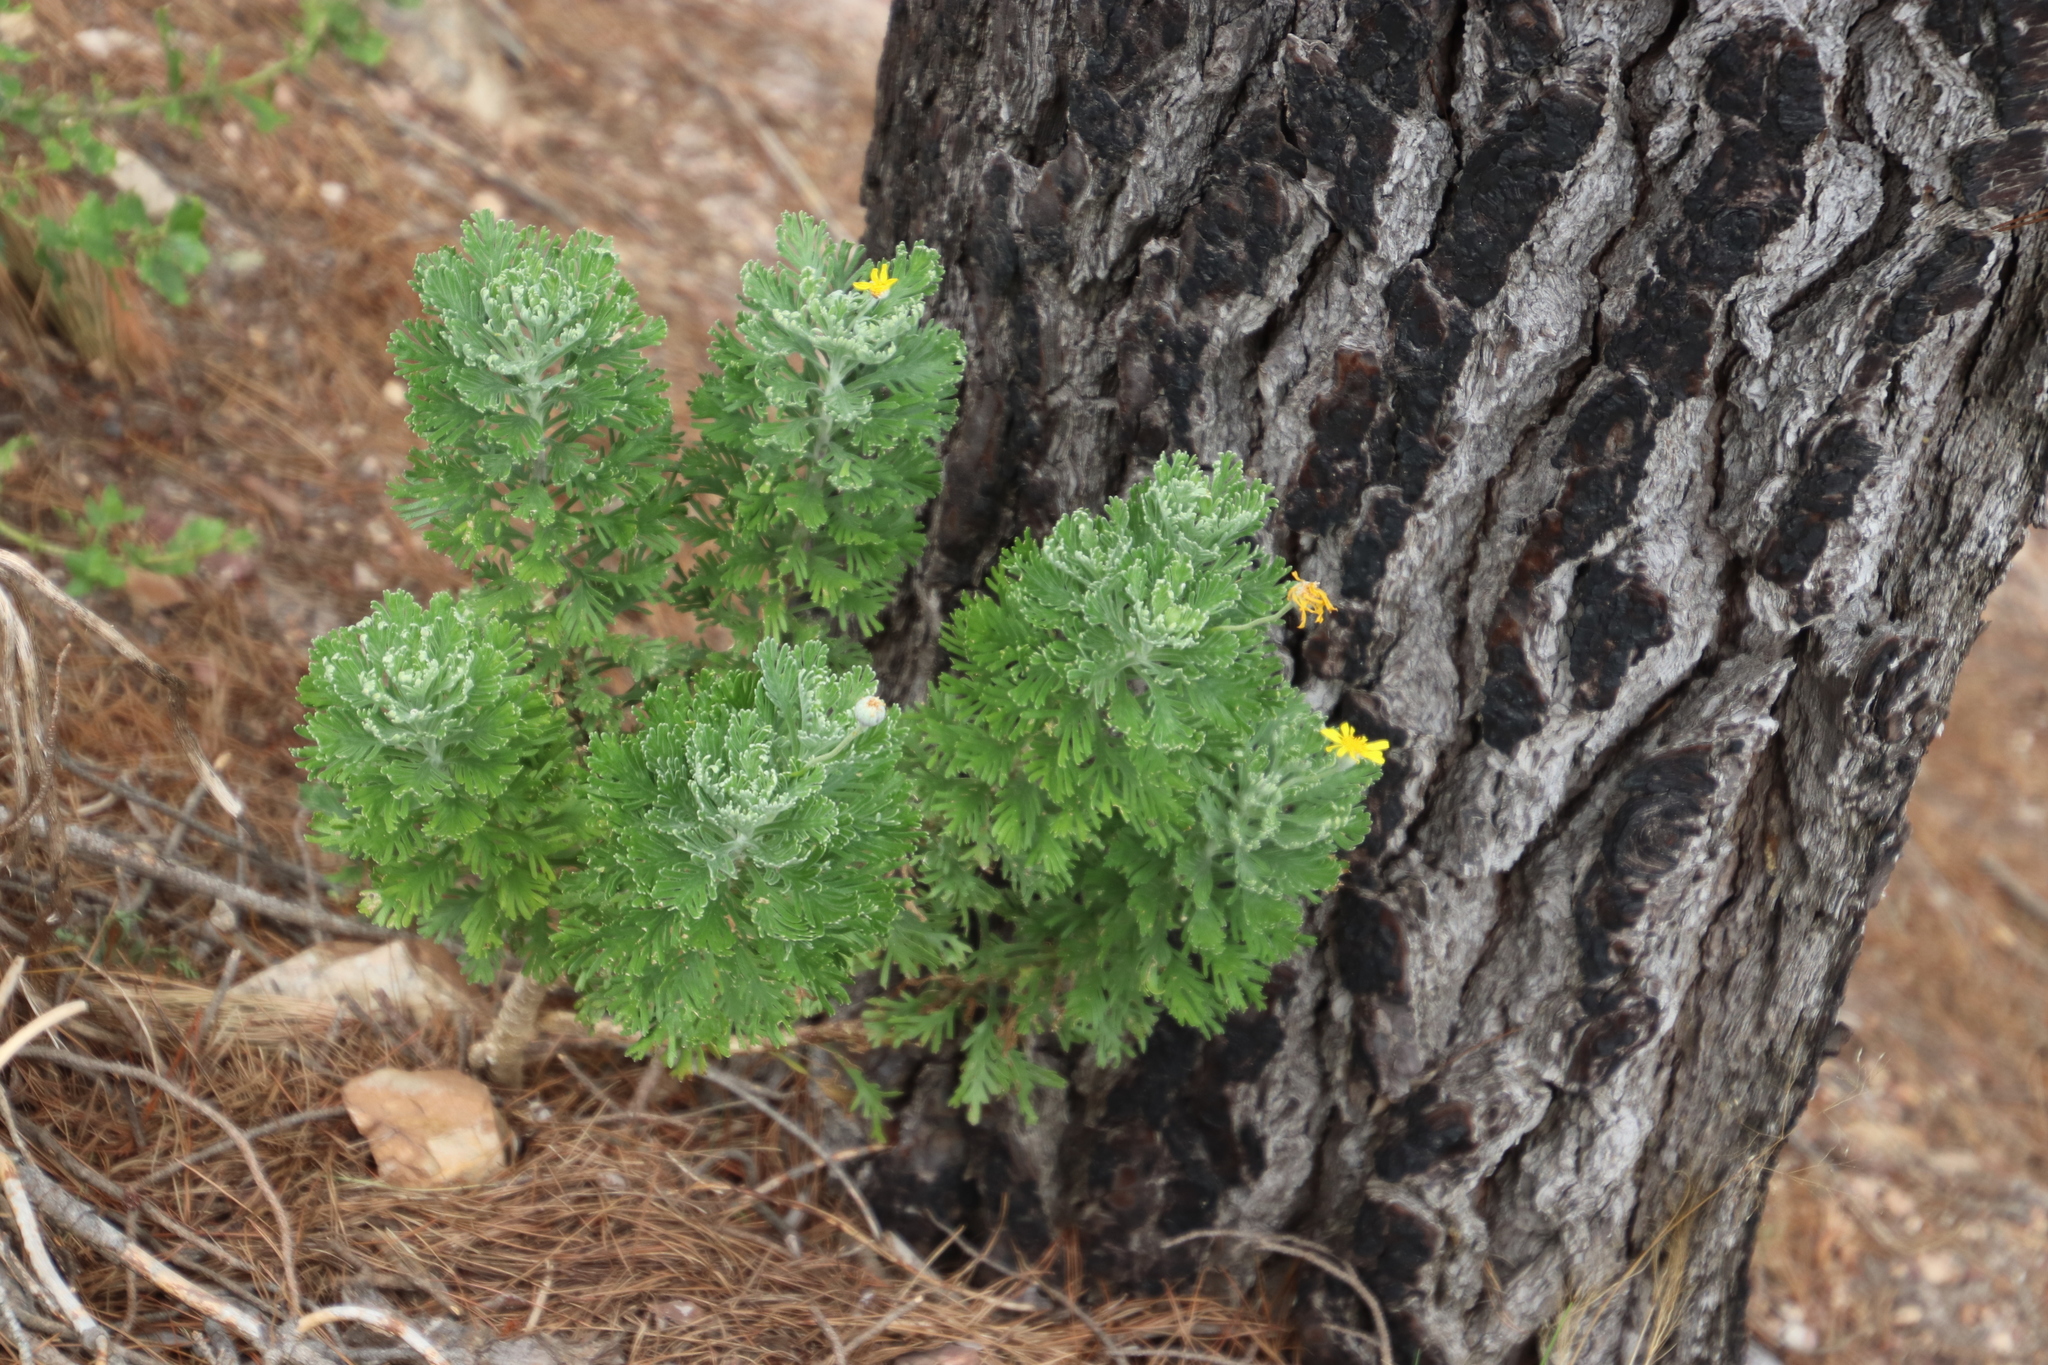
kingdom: Plantae
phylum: Tracheophyta
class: Magnoliopsida
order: Asterales
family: Asteraceae
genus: Euryops
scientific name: Euryops pectinatus
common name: Gray-leaf euryops
